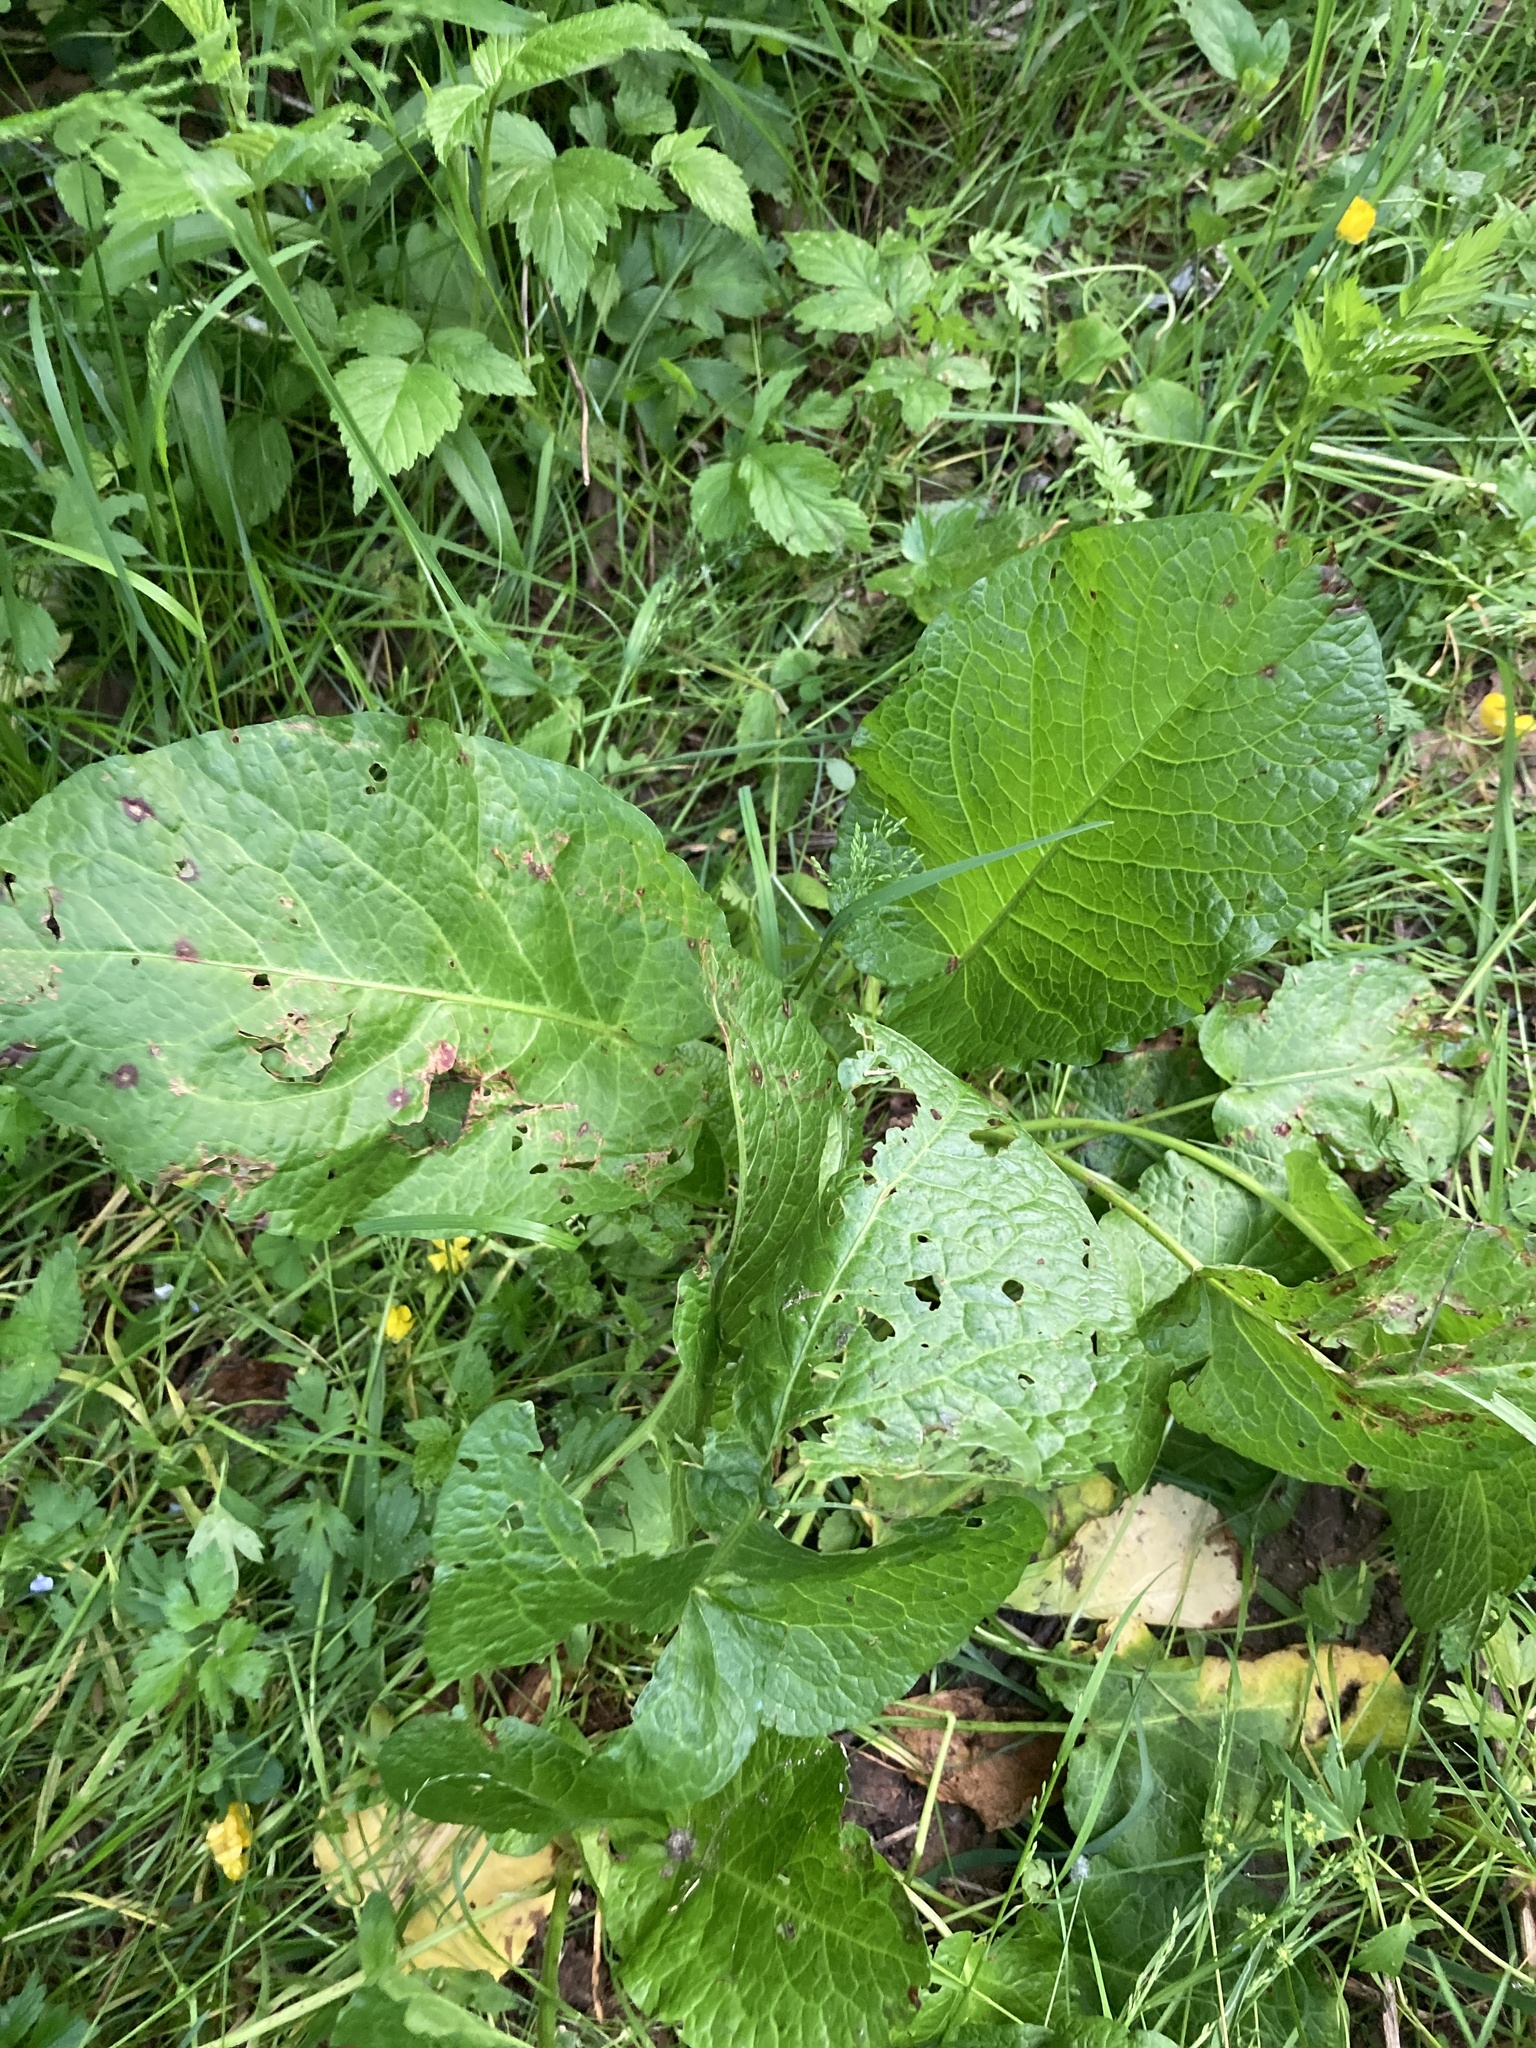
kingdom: Plantae
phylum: Tracheophyta
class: Magnoliopsida
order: Caryophyllales
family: Polygonaceae
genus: Rumex
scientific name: Rumex obtusifolius
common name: Bitter dock
